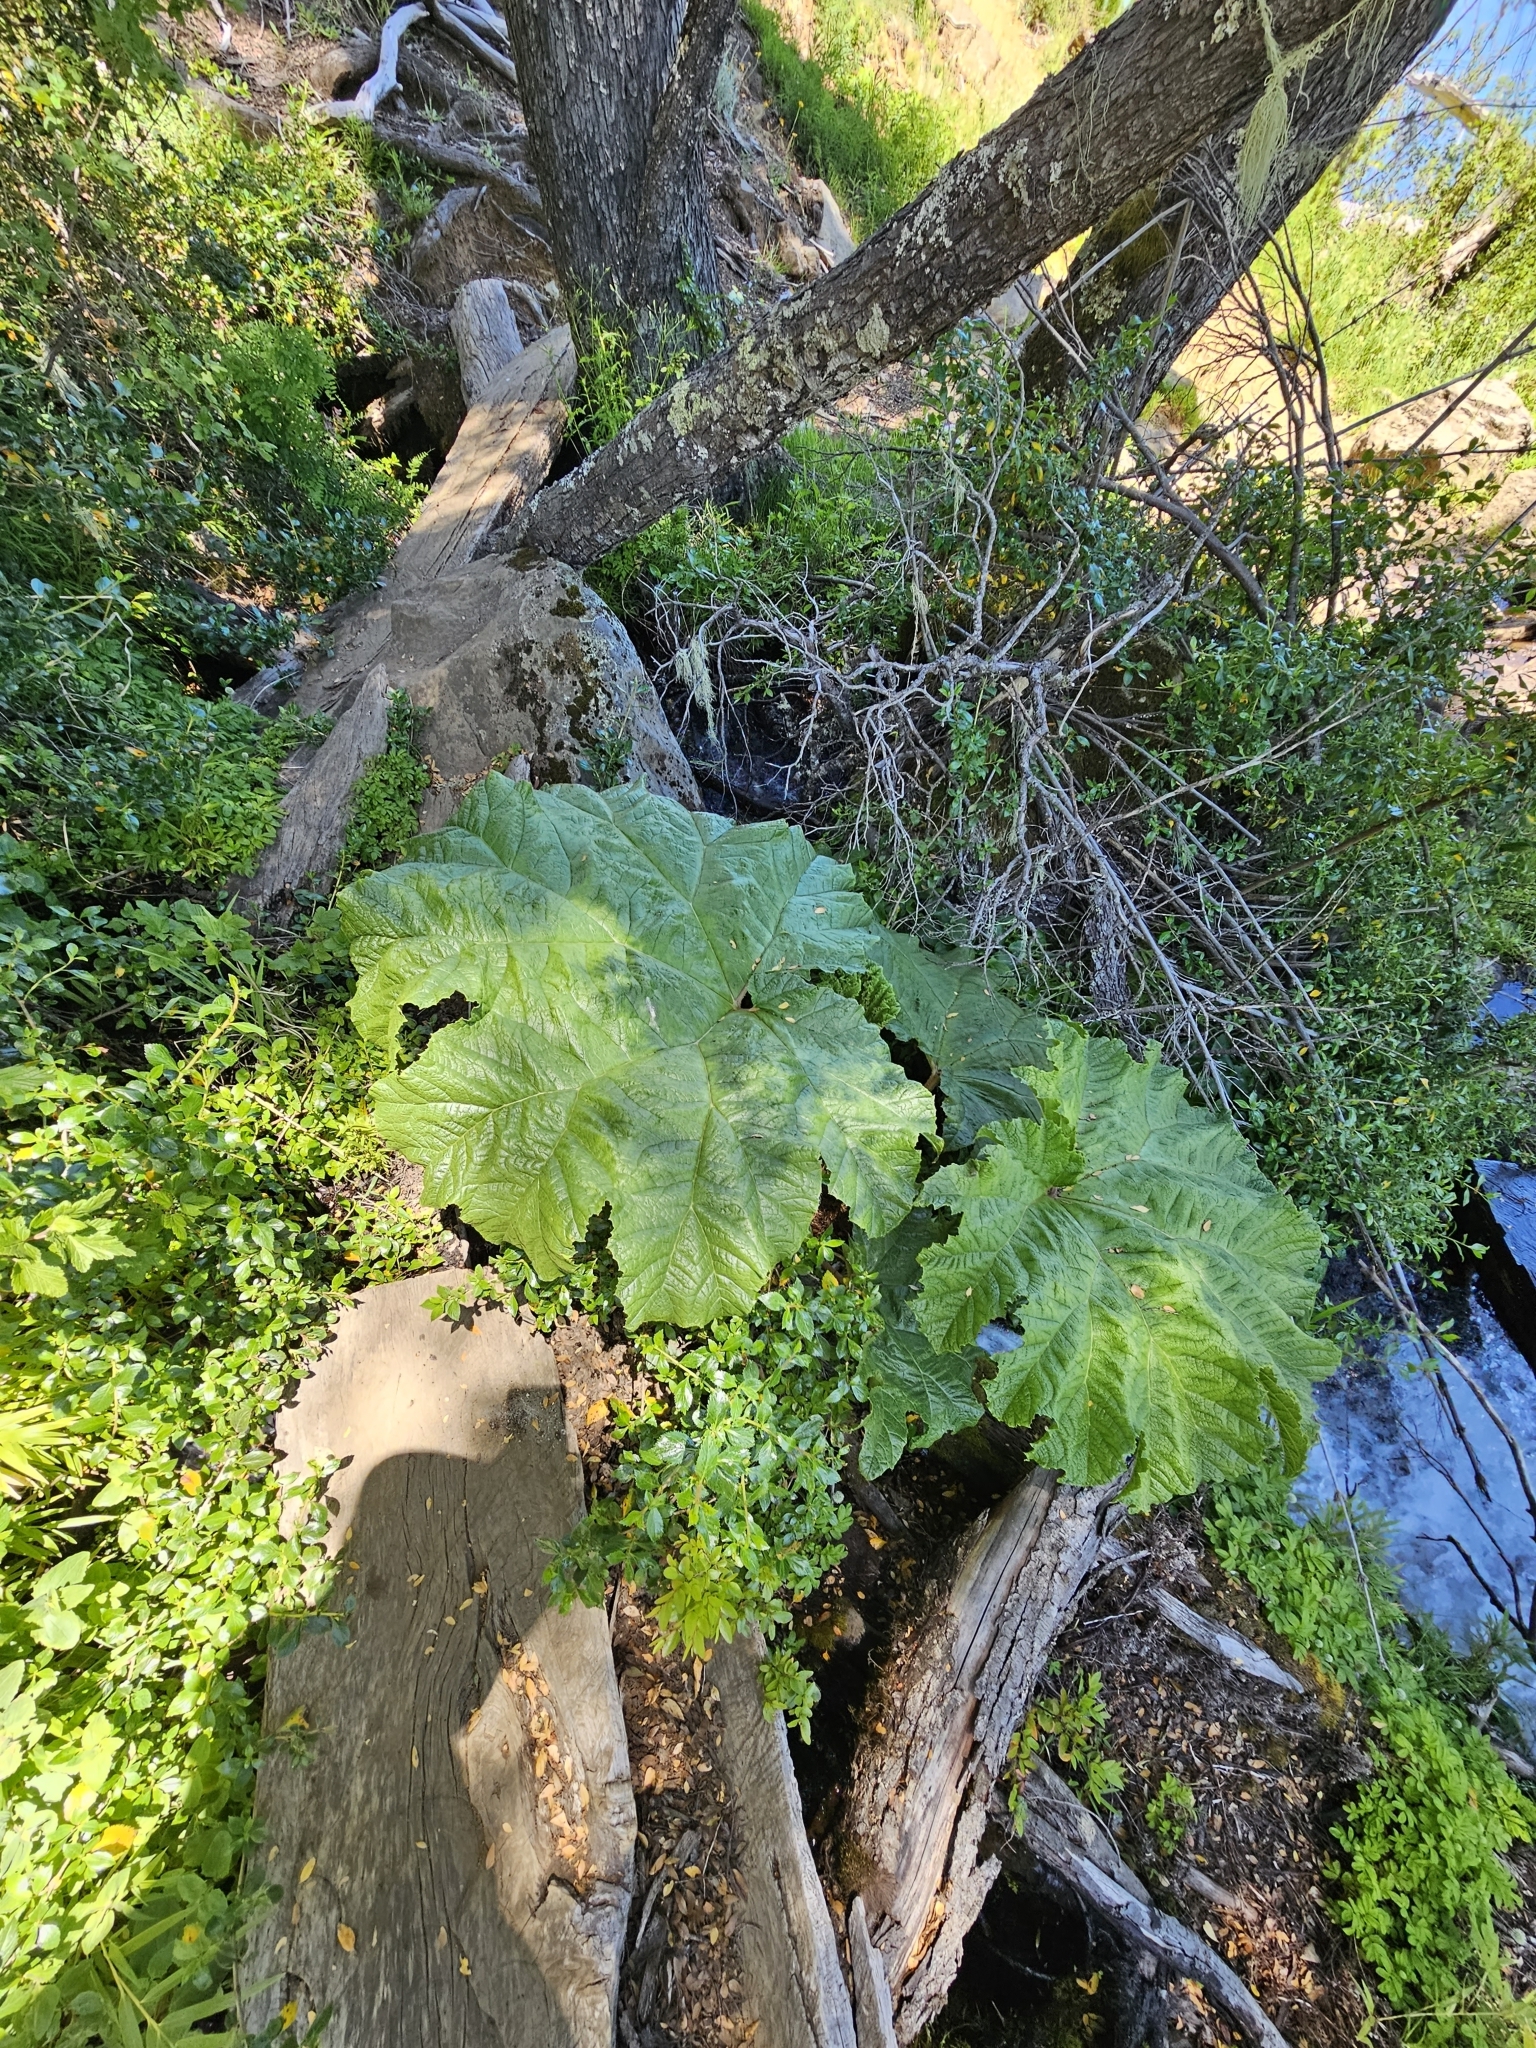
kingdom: Plantae
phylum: Tracheophyta
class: Magnoliopsida
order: Gunnerales
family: Gunneraceae
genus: Gunnera
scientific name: Gunnera tinctoria
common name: Giant-rhubarb
